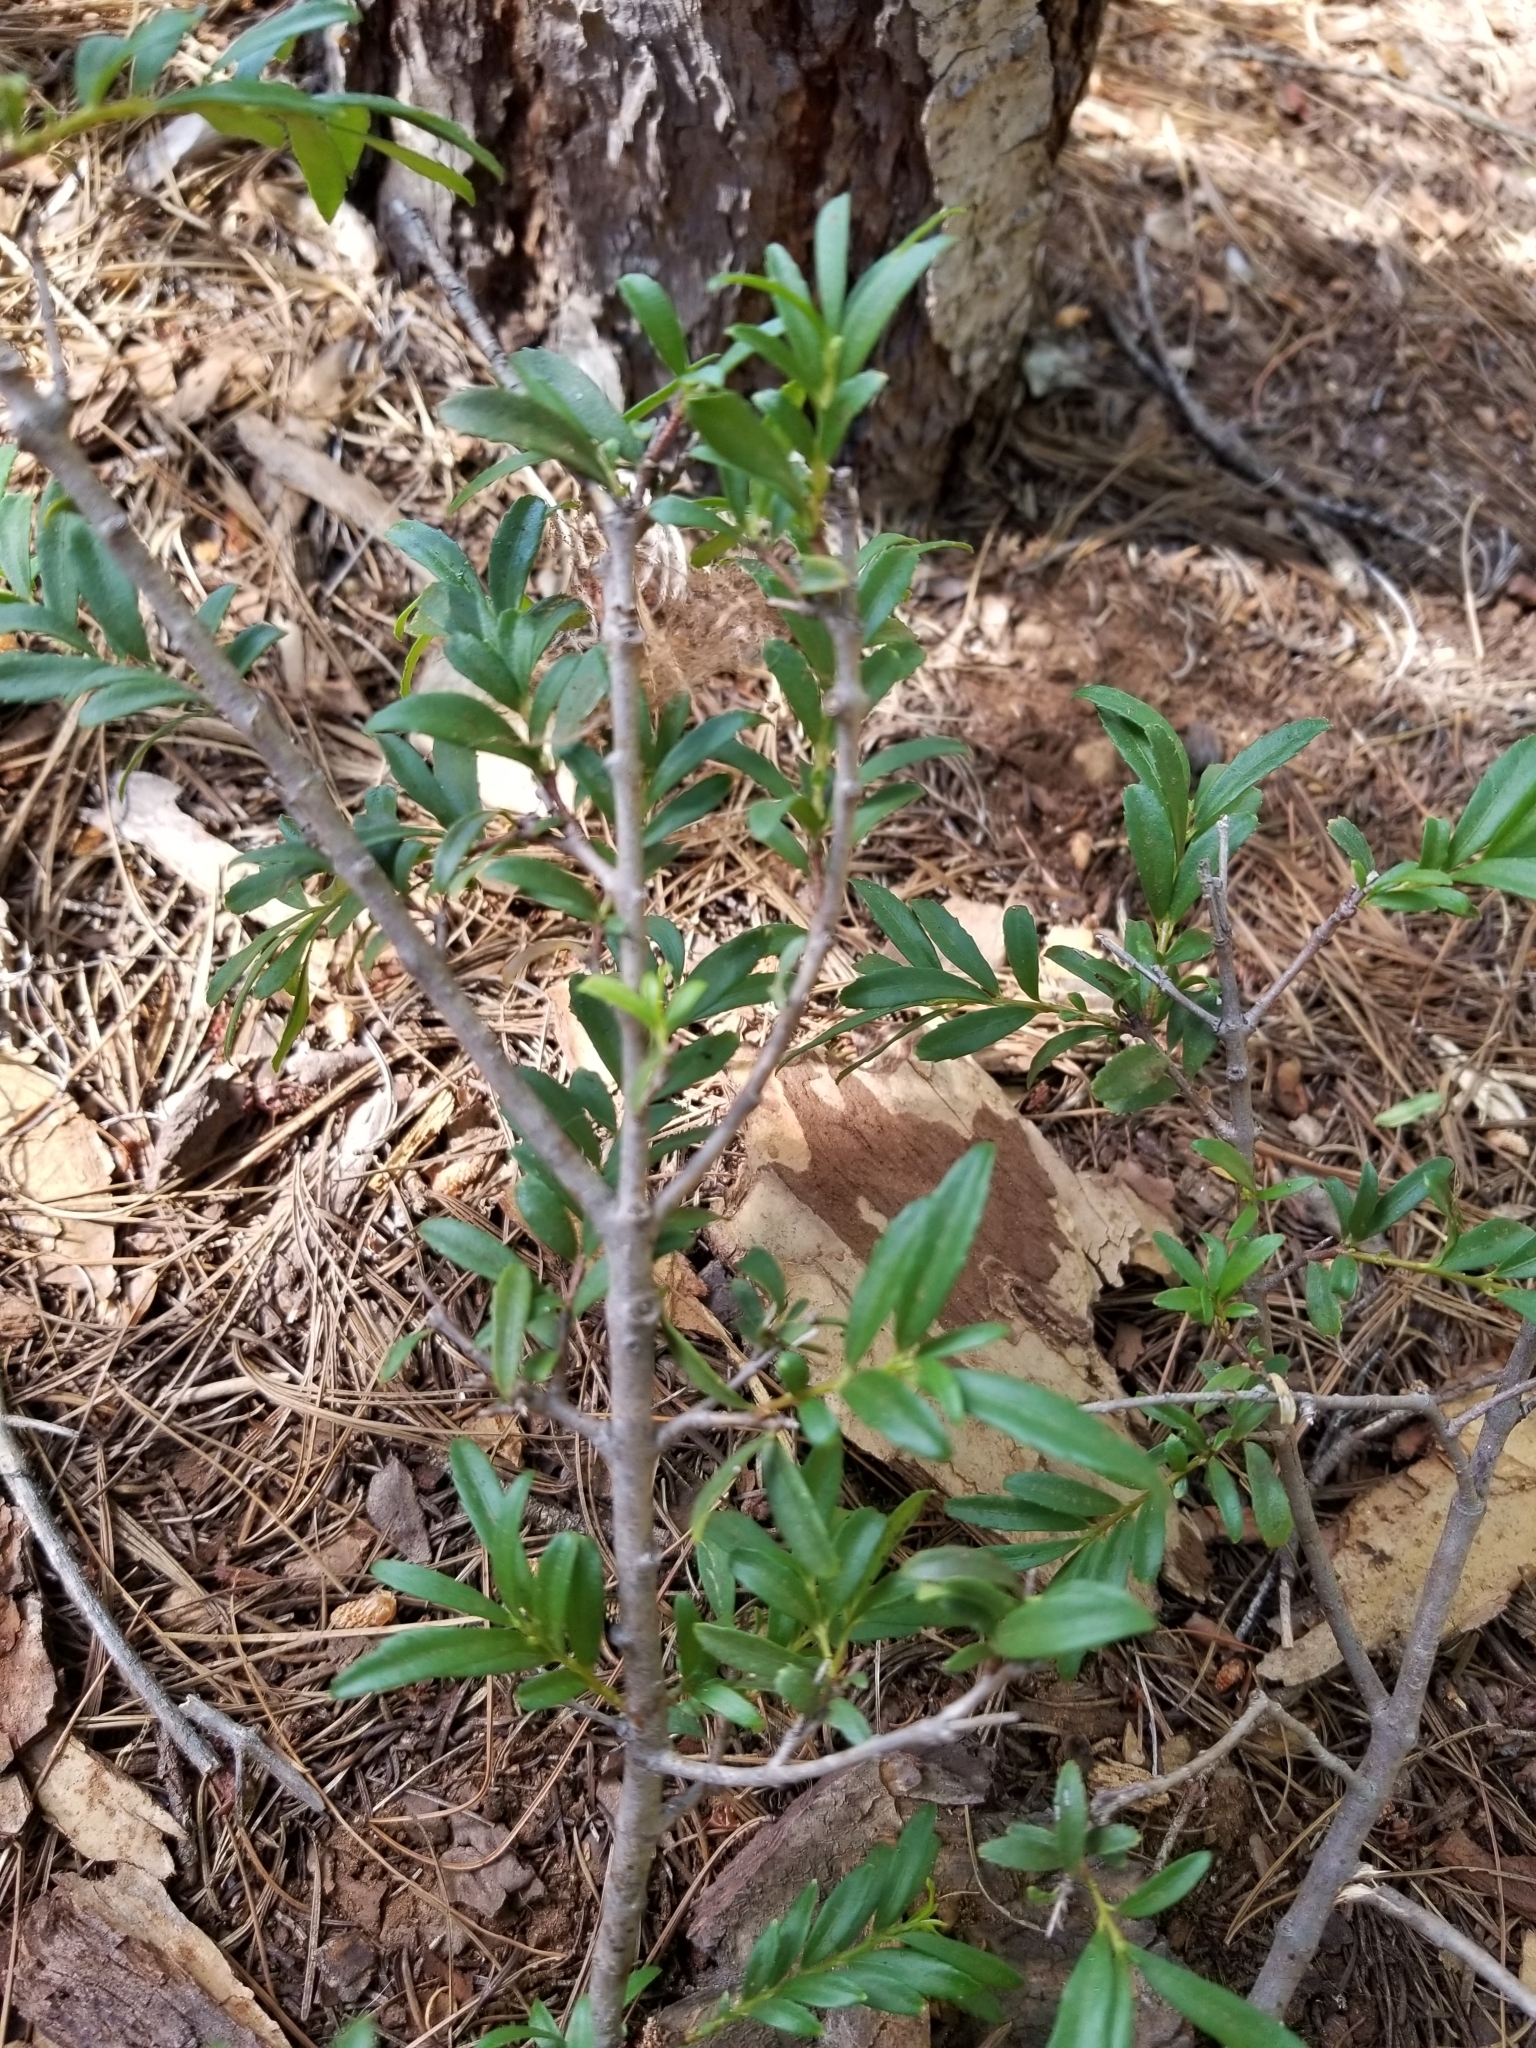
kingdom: Plantae
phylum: Tracheophyta
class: Magnoliopsida
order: Celastrales
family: Celastraceae
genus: Paxistima
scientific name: Paxistima myrsinites
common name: Mountain-lover
